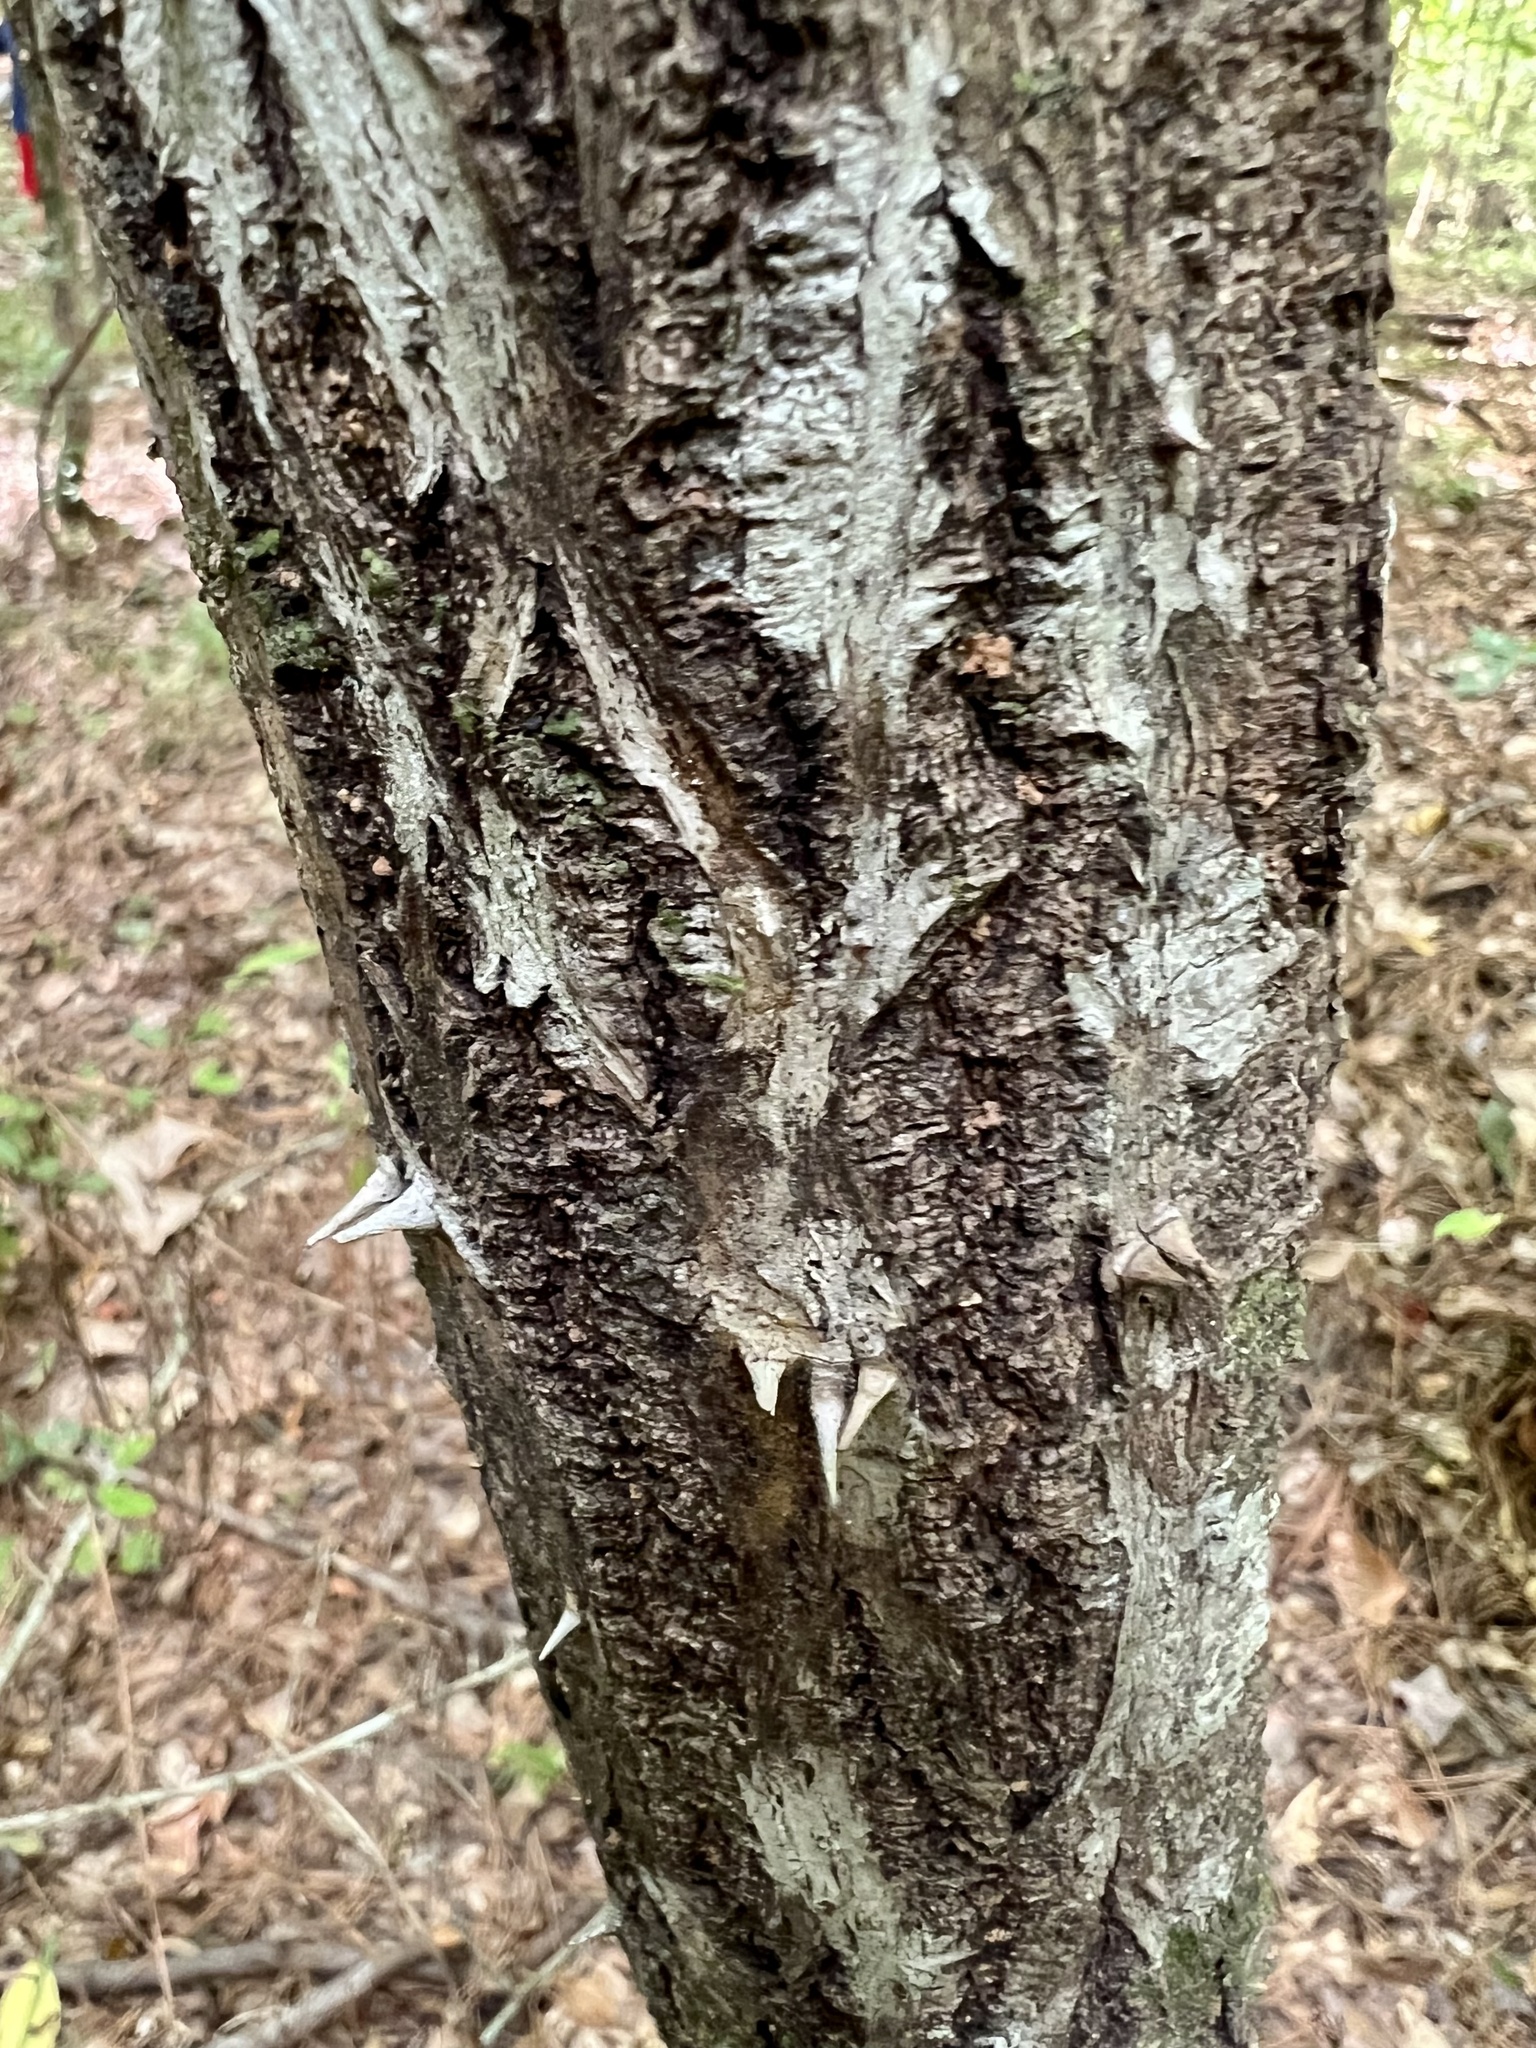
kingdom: Plantae
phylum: Tracheophyta
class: Magnoliopsida
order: Apiales
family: Araliaceae
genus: Aralia
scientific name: Aralia spinosa
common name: Hercules'-club
